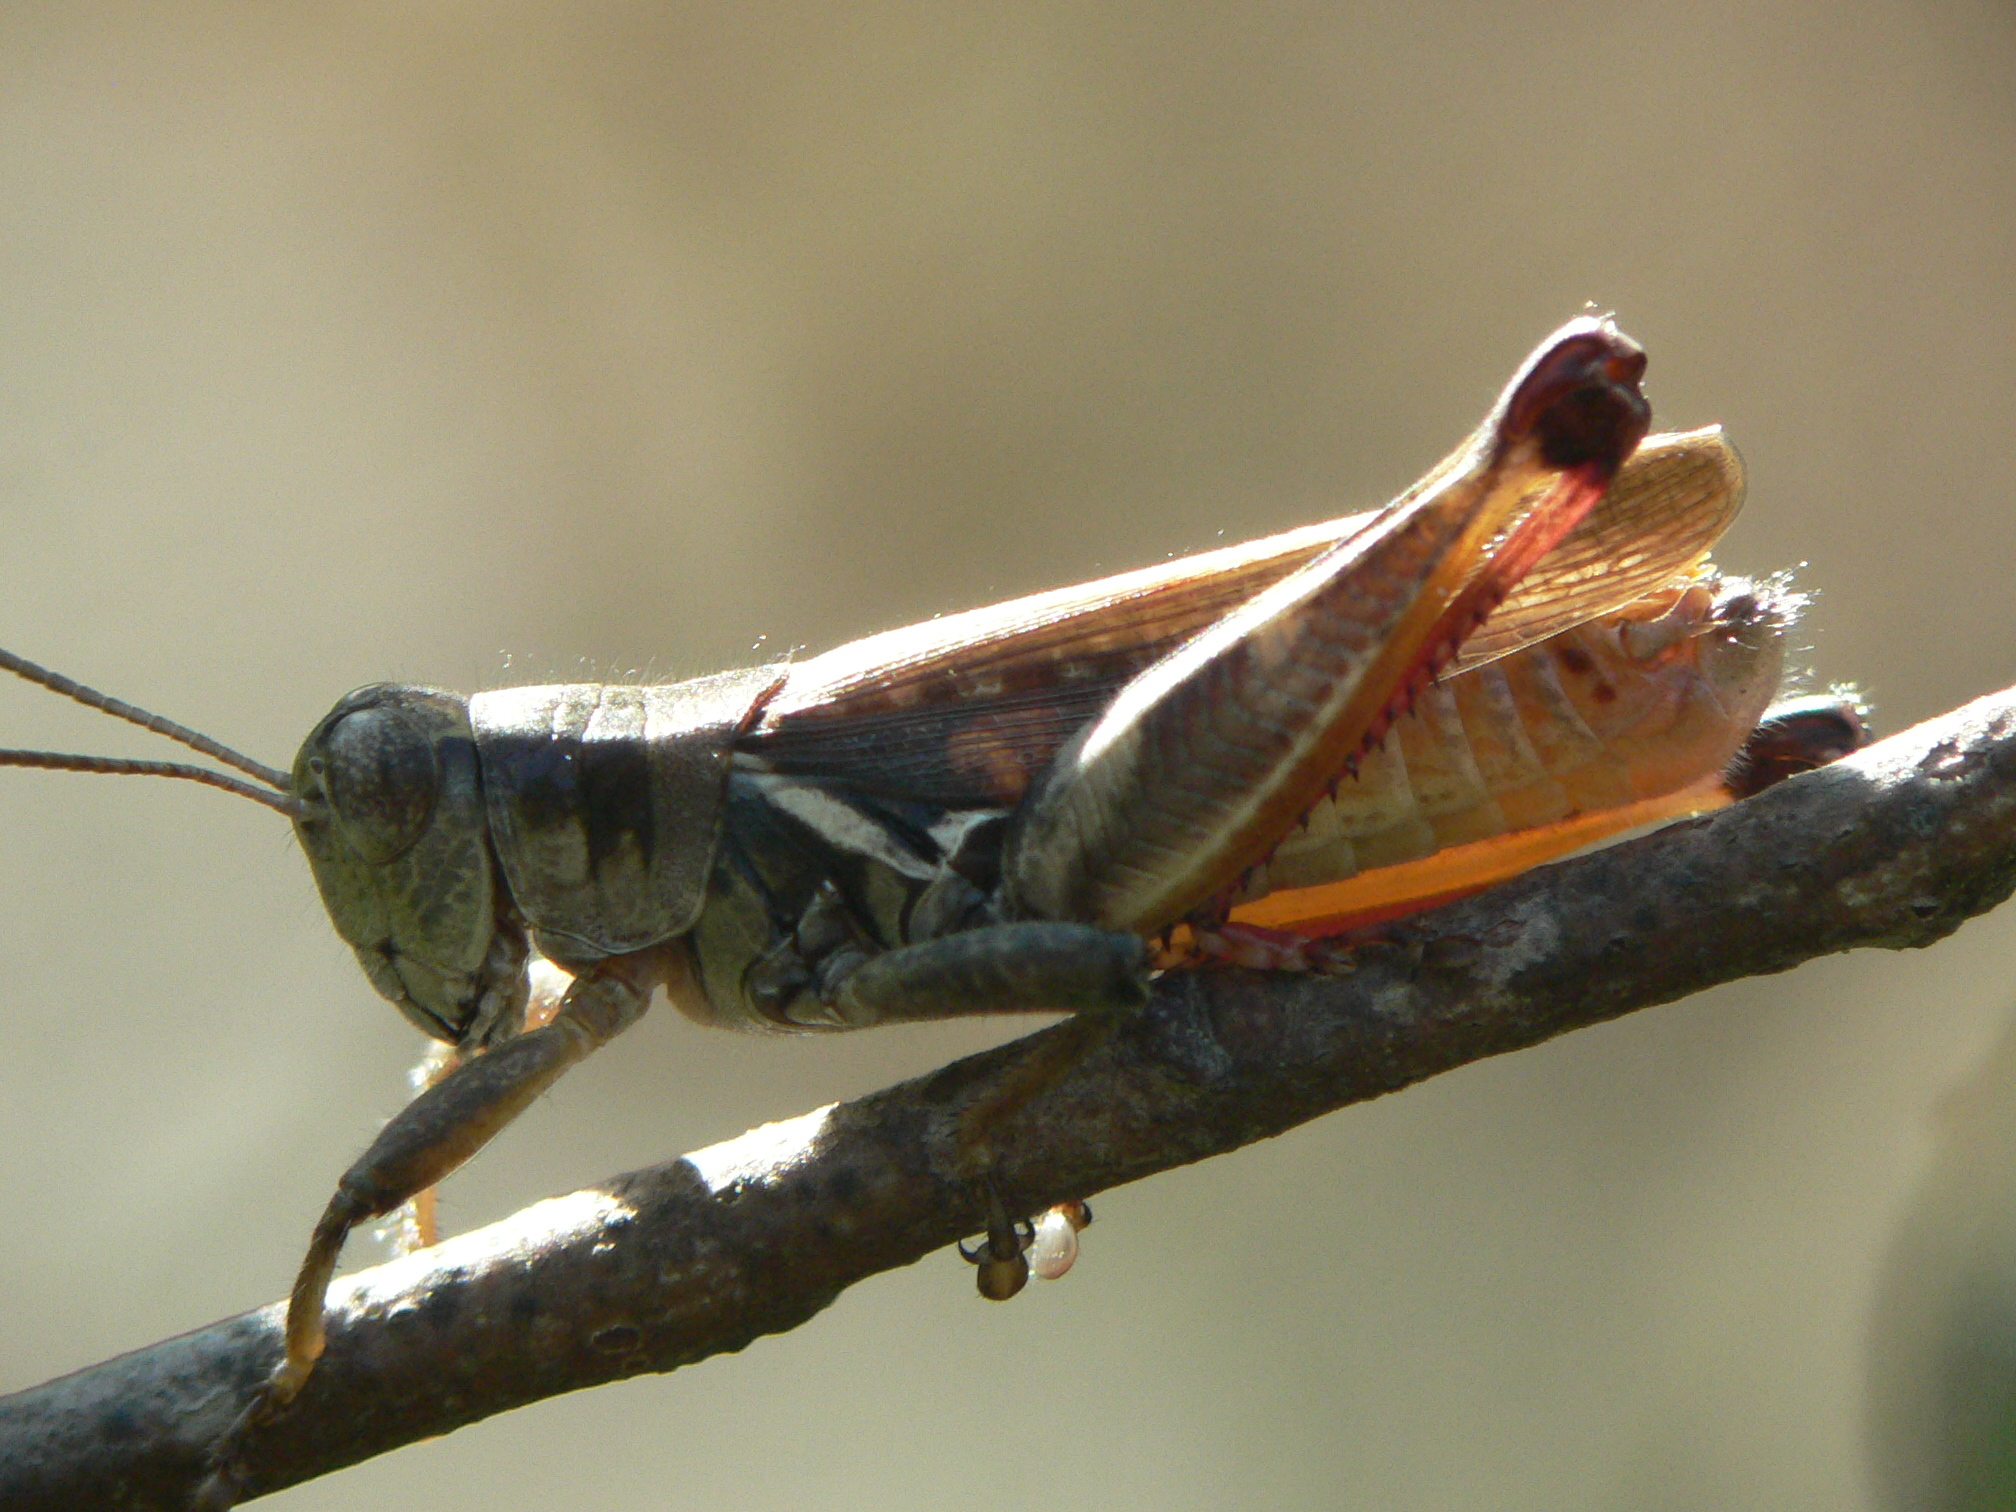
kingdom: Animalia
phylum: Arthropoda
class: Insecta
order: Orthoptera
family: Acrididae
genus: Melanoplus
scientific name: Melanoplus keeleri
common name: Keeler grasshopper
